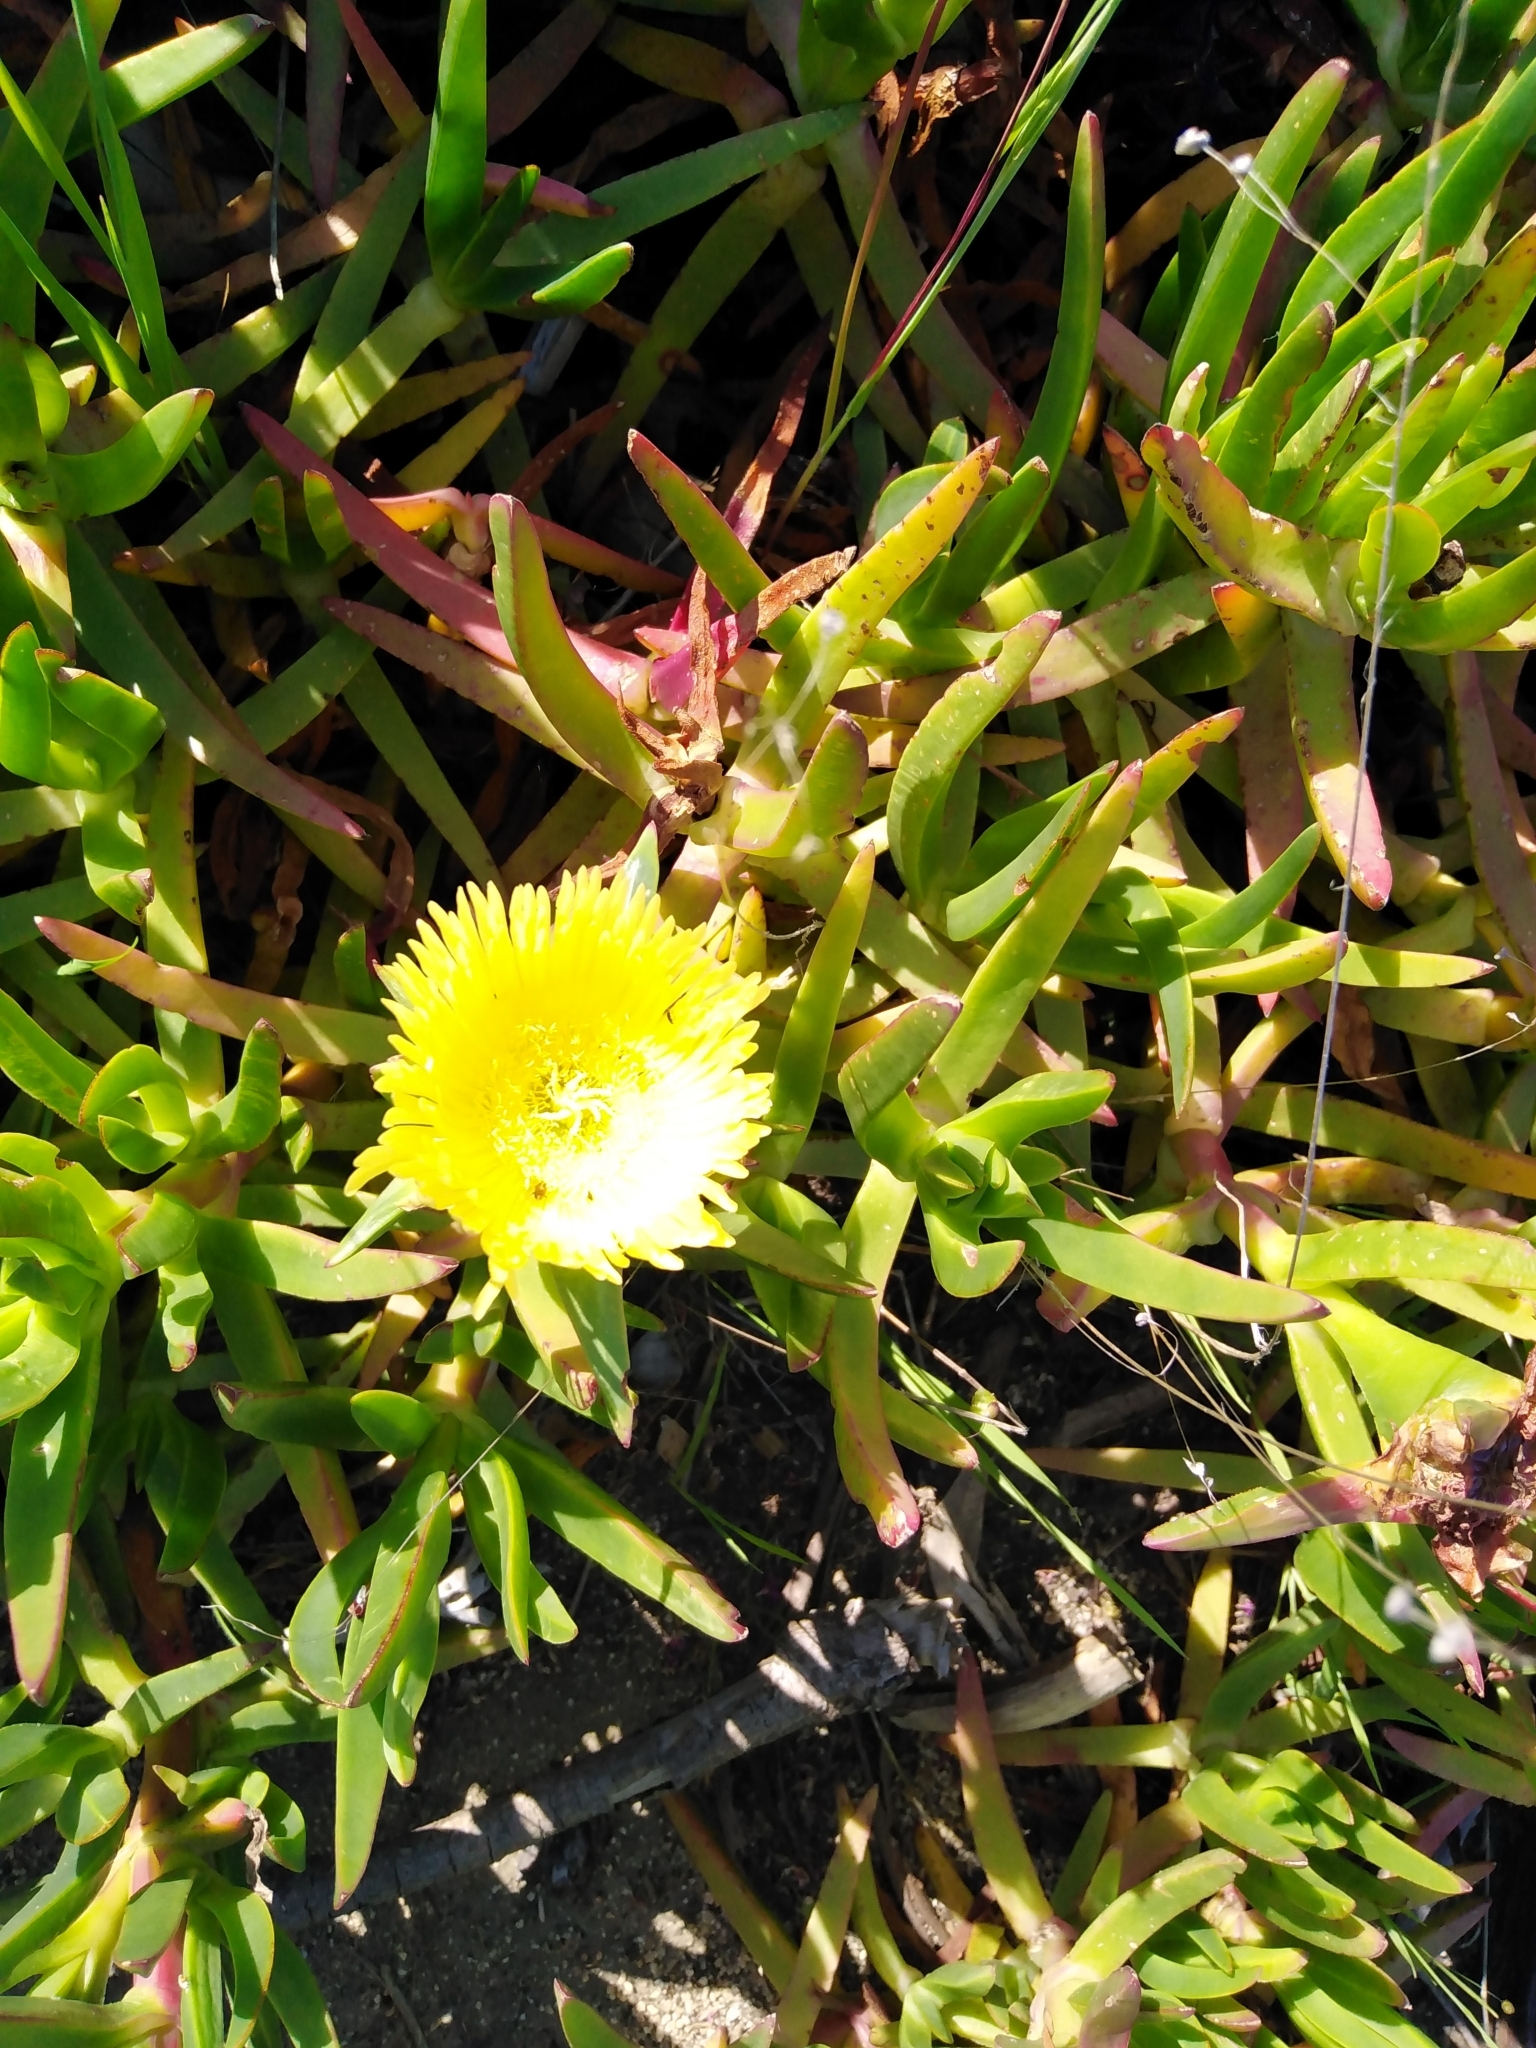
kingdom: Plantae
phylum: Tracheophyta
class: Magnoliopsida
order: Caryophyllales
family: Aizoaceae
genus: Carpobrotus
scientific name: Carpobrotus edulis
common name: Hottentot-fig
